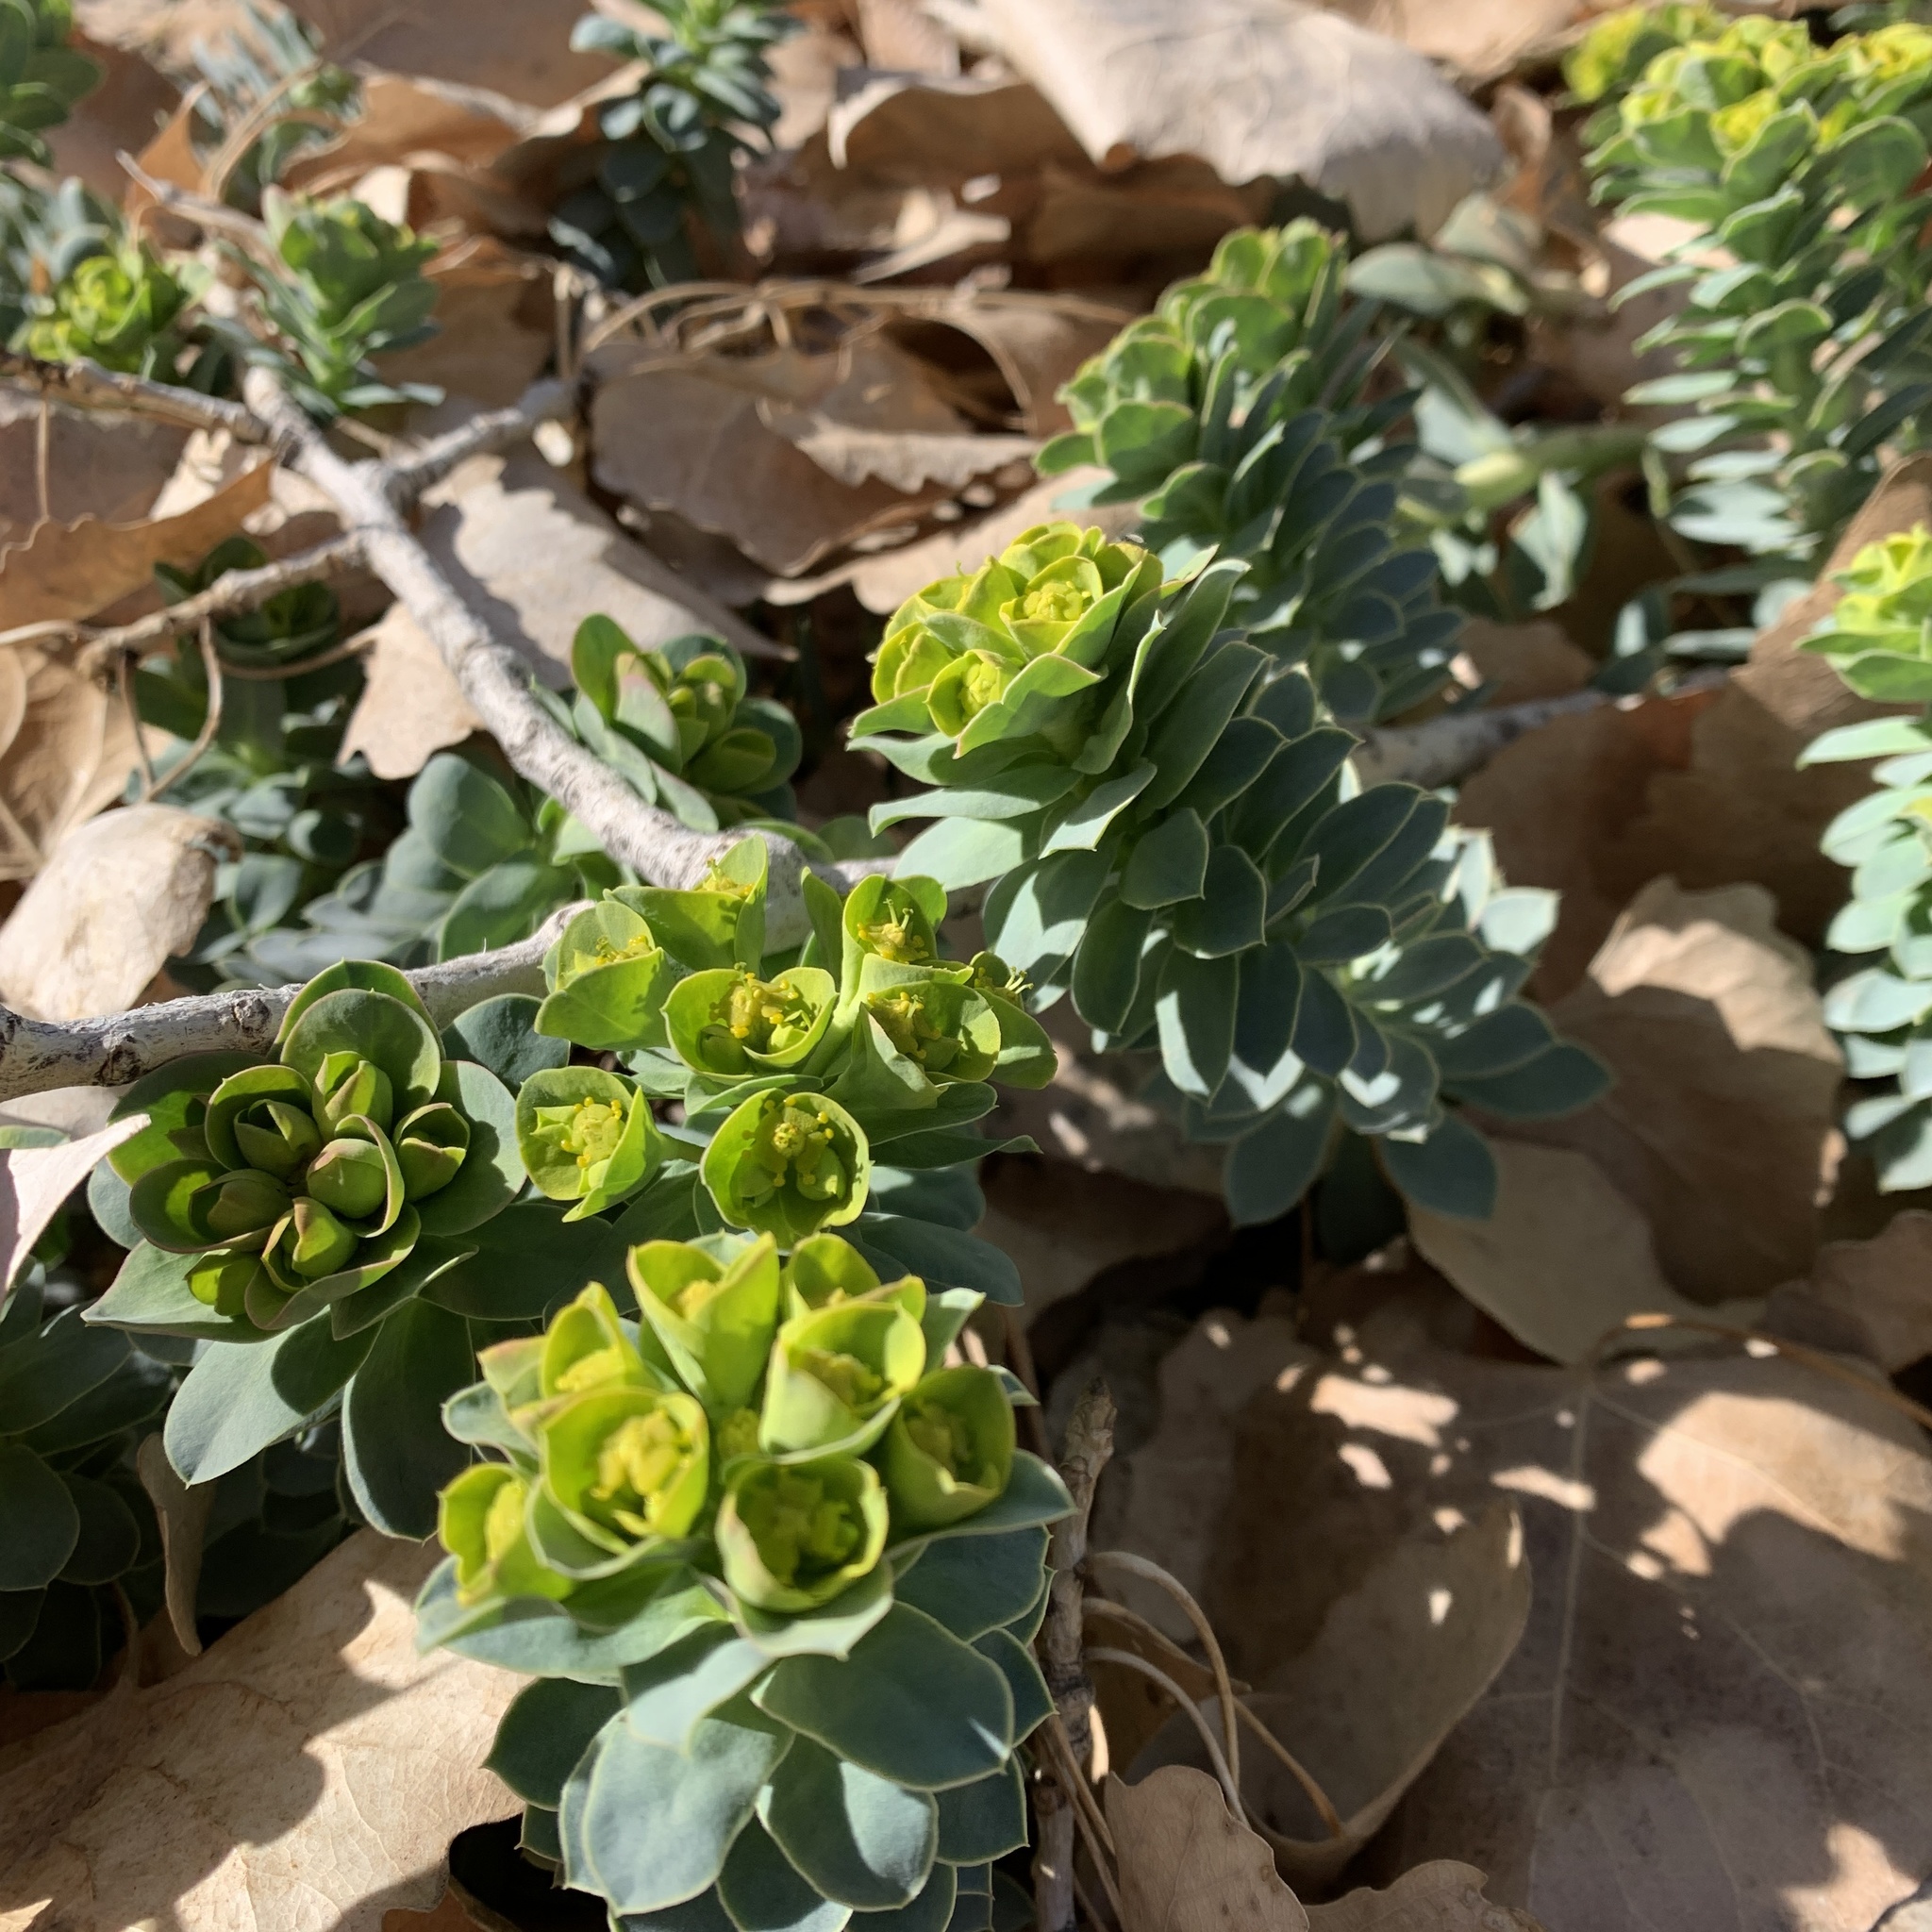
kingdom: Plantae
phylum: Tracheophyta
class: Magnoliopsida
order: Malpighiales
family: Euphorbiaceae
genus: Euphorbia
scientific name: Euphorbia myrsinites
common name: Myrtle spurge
